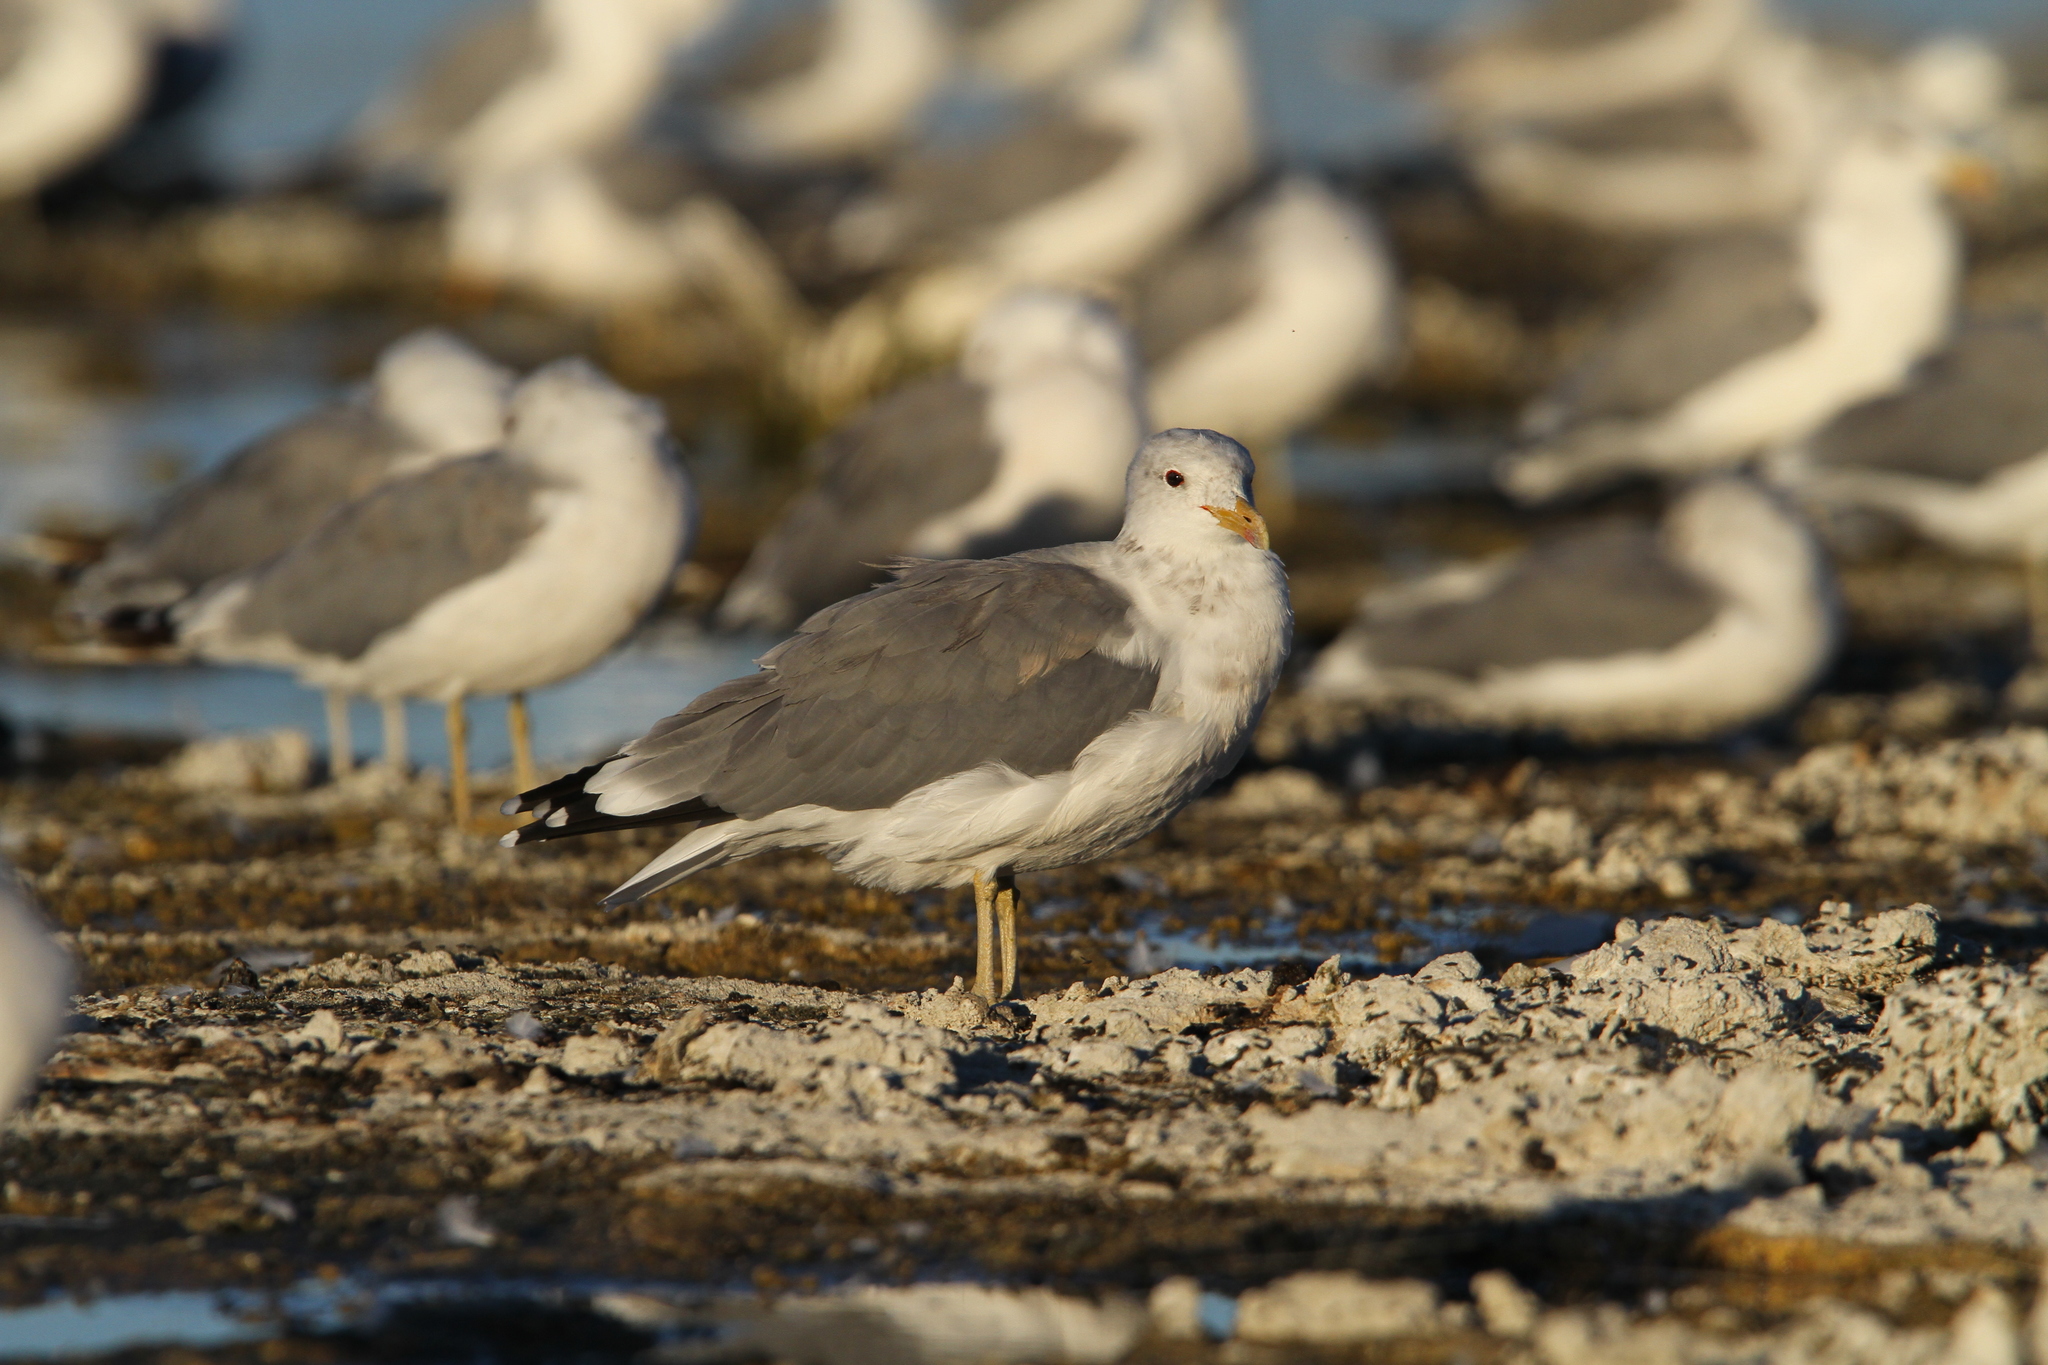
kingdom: Animalia
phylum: Chordata
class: Aves
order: Charadriiformes
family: Laridae
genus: Larus
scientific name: Larus californicus
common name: California gull
